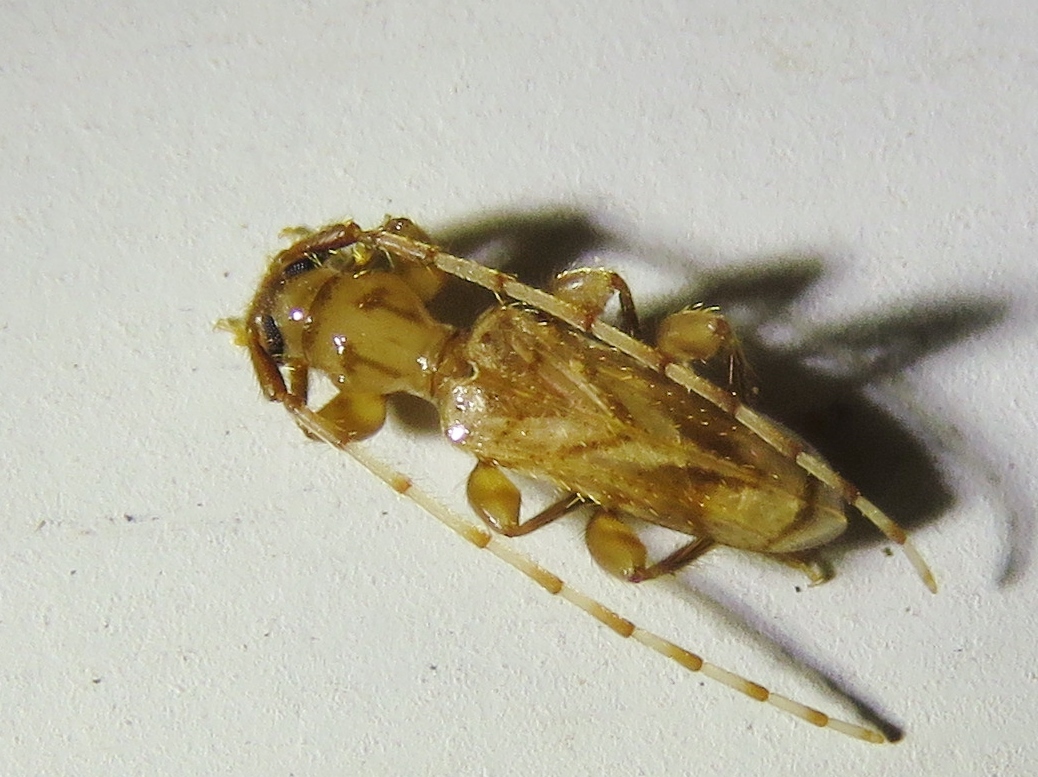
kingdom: Animalia
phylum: Arthropoda
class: Insecta
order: Coleoptera
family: Cerambycidae
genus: Obrium
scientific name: Obrium maculatum
